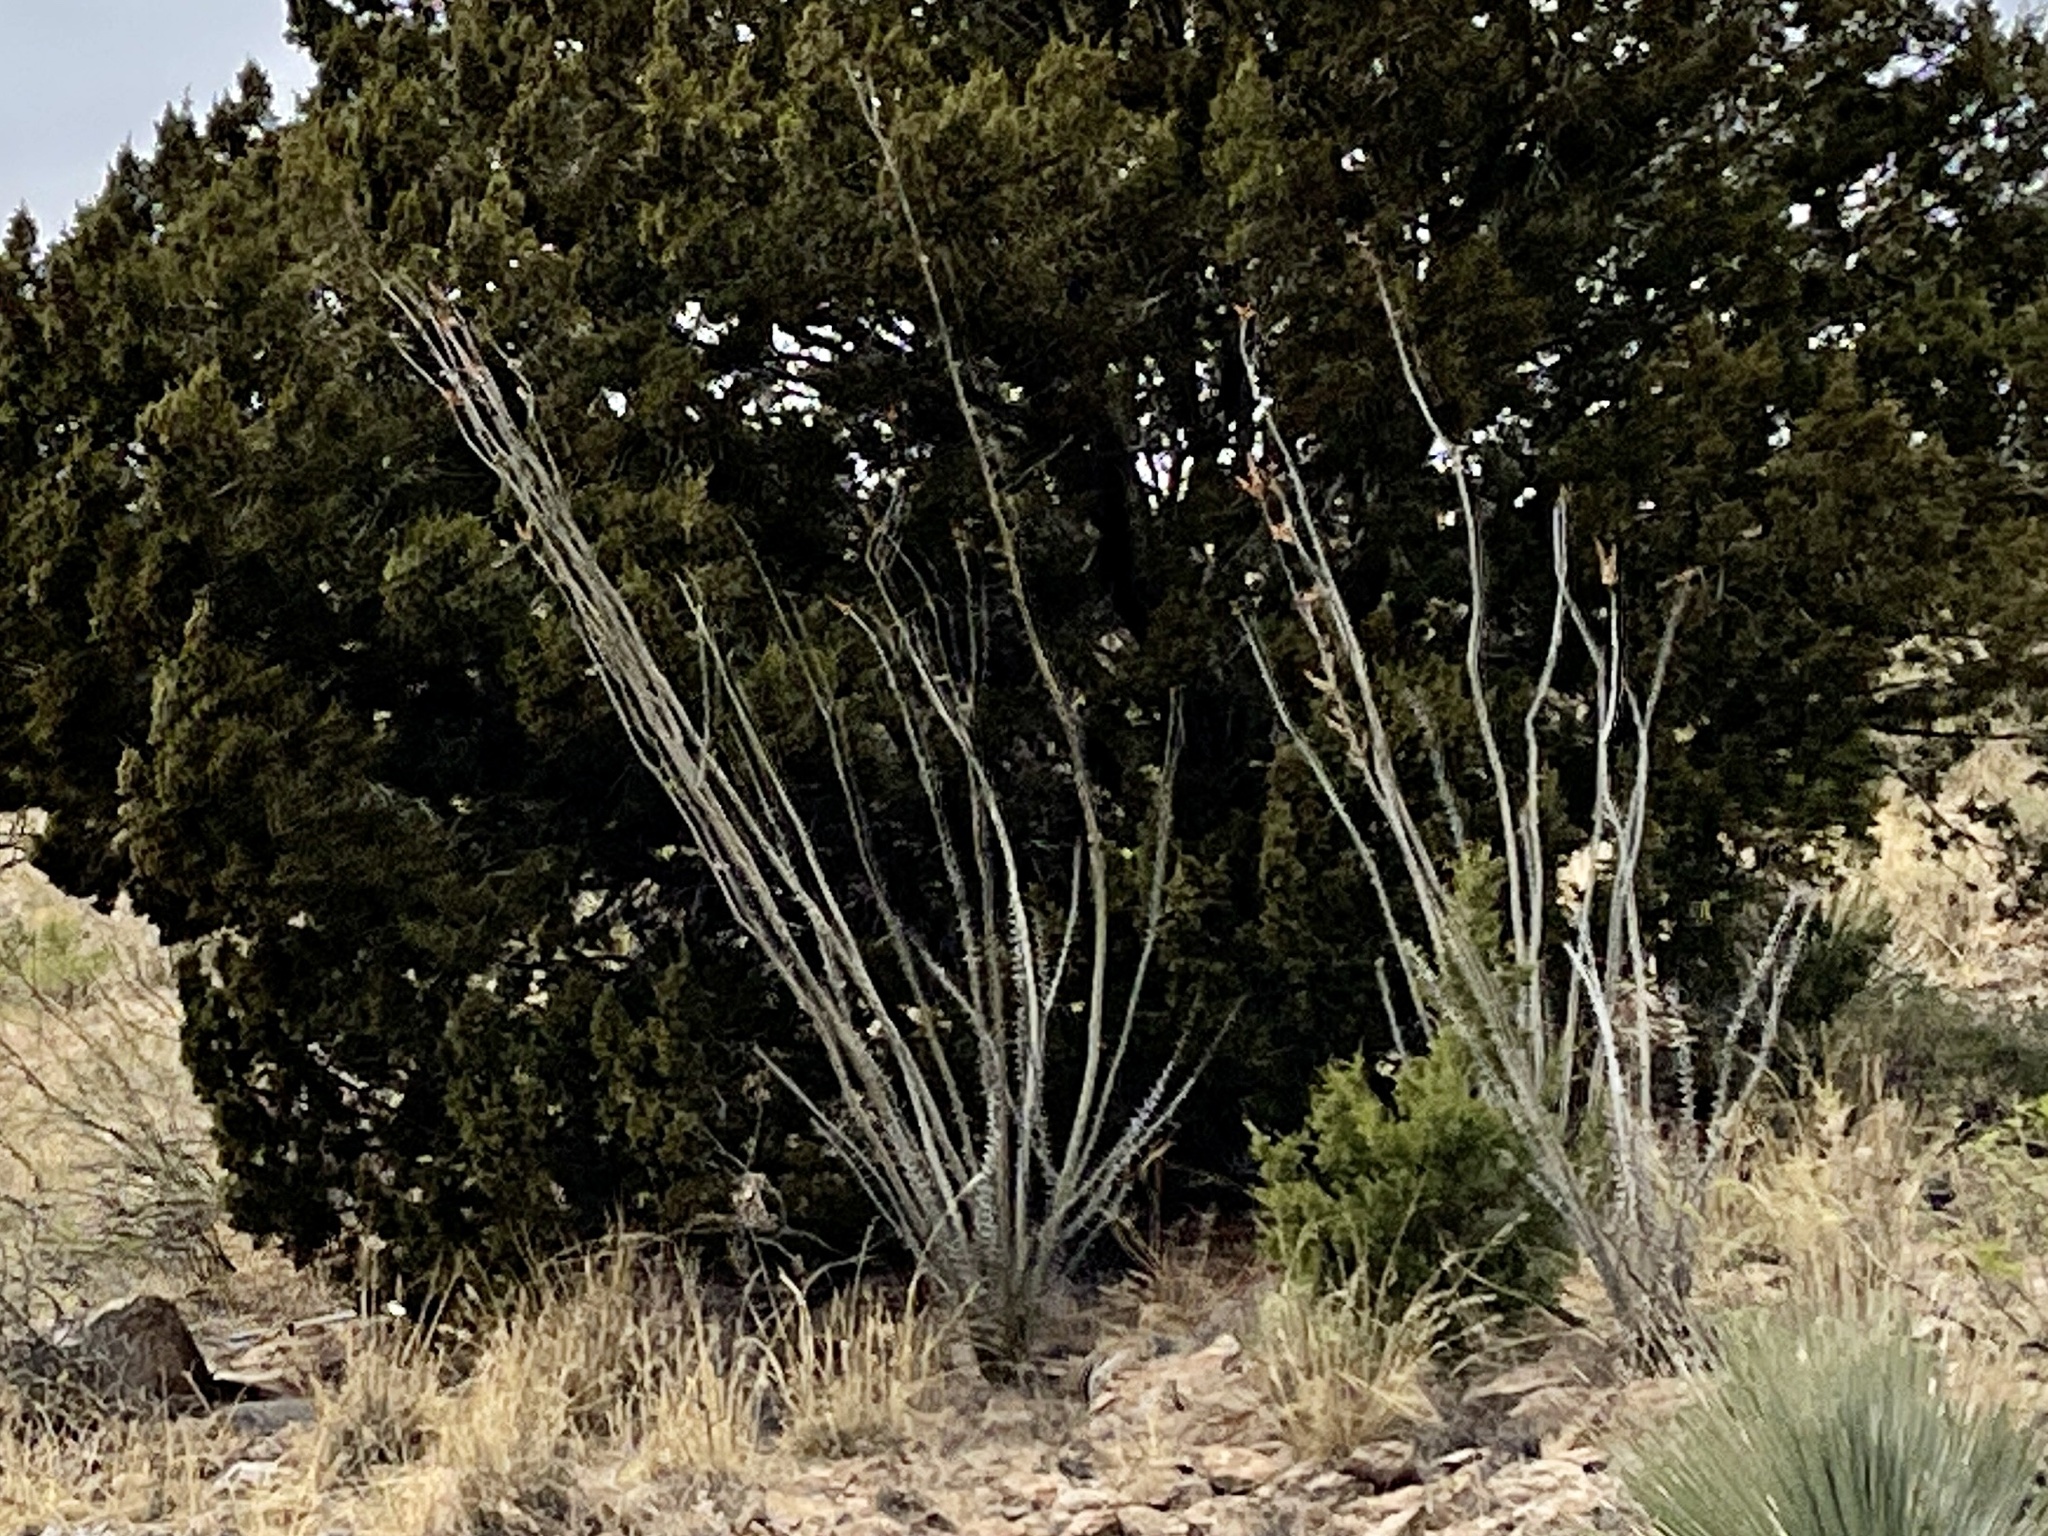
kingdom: Plantae
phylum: Tracheophyta
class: Magnoliopsida
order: Ericales
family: Fouquieriaceae
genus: Fouquieria
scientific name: Fouquieria splendens
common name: Vine-cactus
